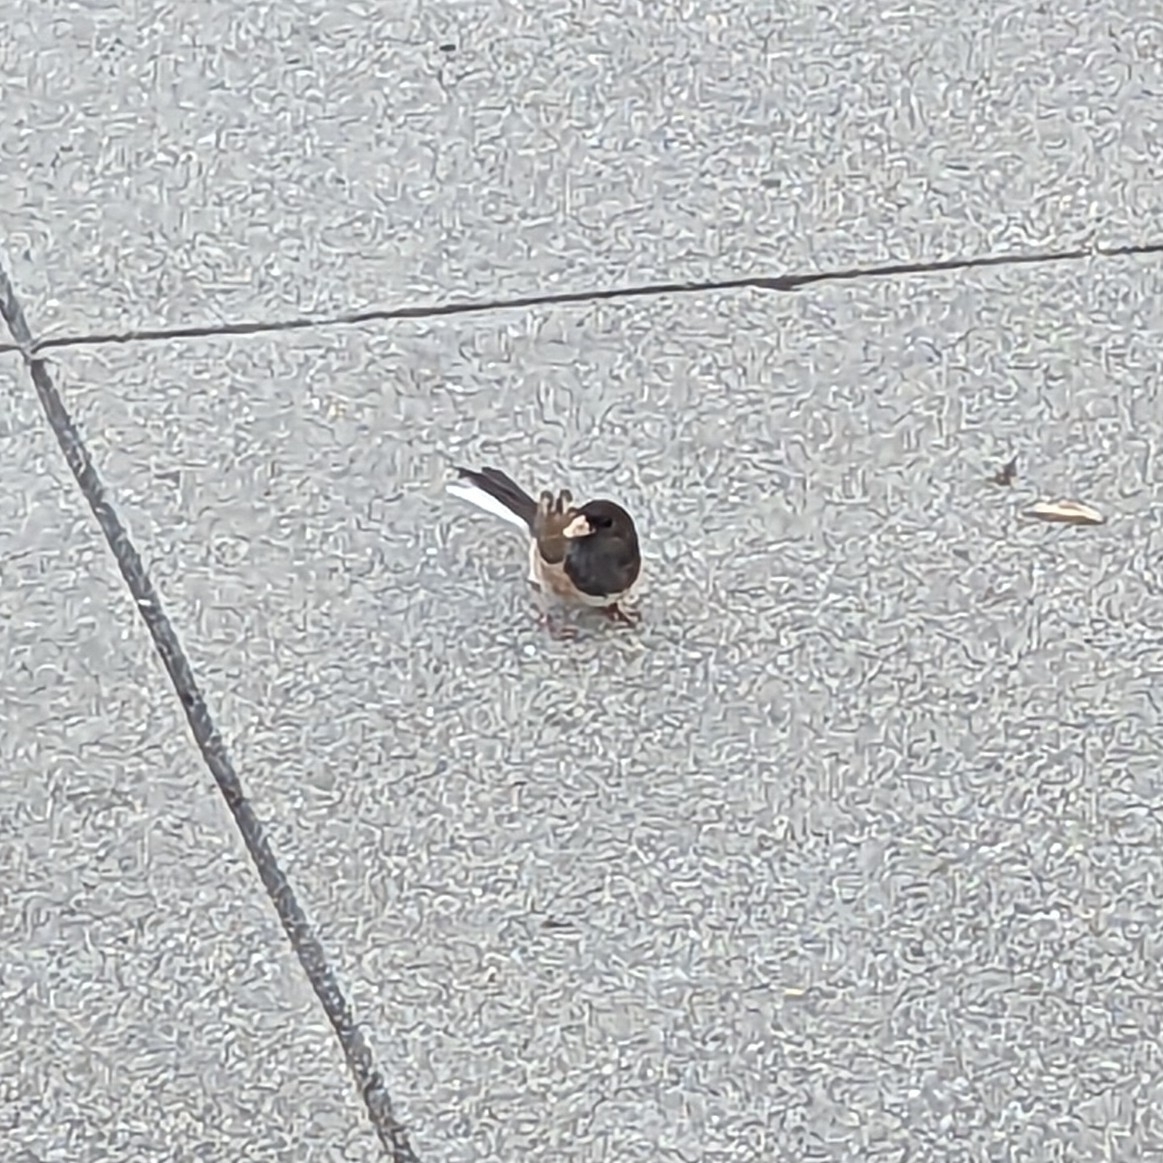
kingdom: Animalia
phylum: Chordata
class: Aves
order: Passeriformes
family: Passerellidae
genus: Junco
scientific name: Junco hyemalis
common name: Dark-eyed junco
